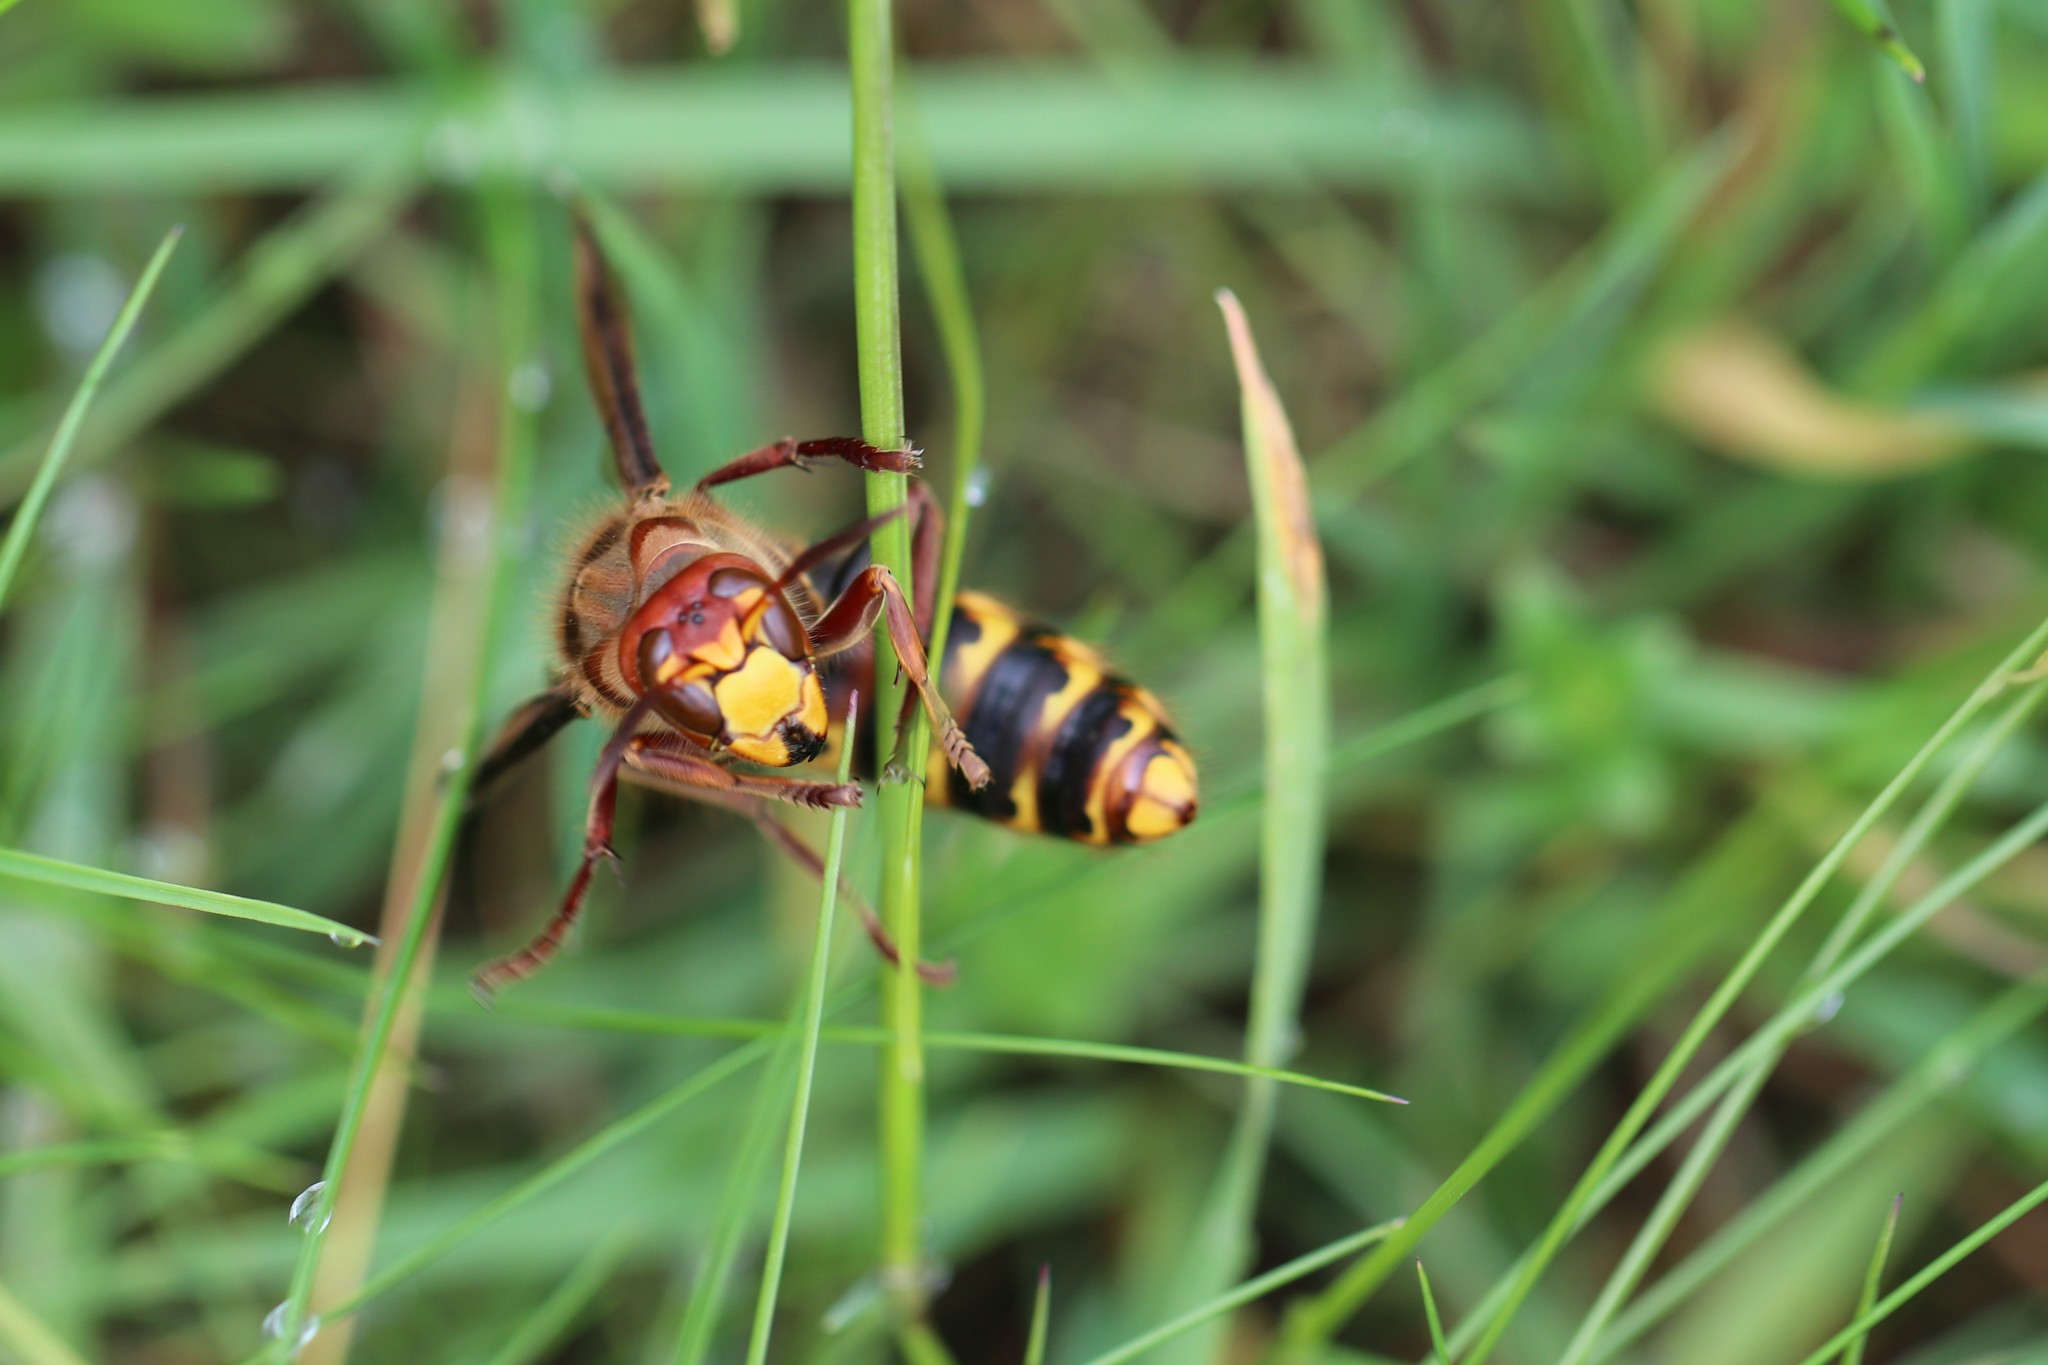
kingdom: Animalia
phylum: Arthropoda
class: Insecta
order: Hymenoptera
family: Vespidae
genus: Vespa
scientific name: Vespa crabro
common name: Hornet
